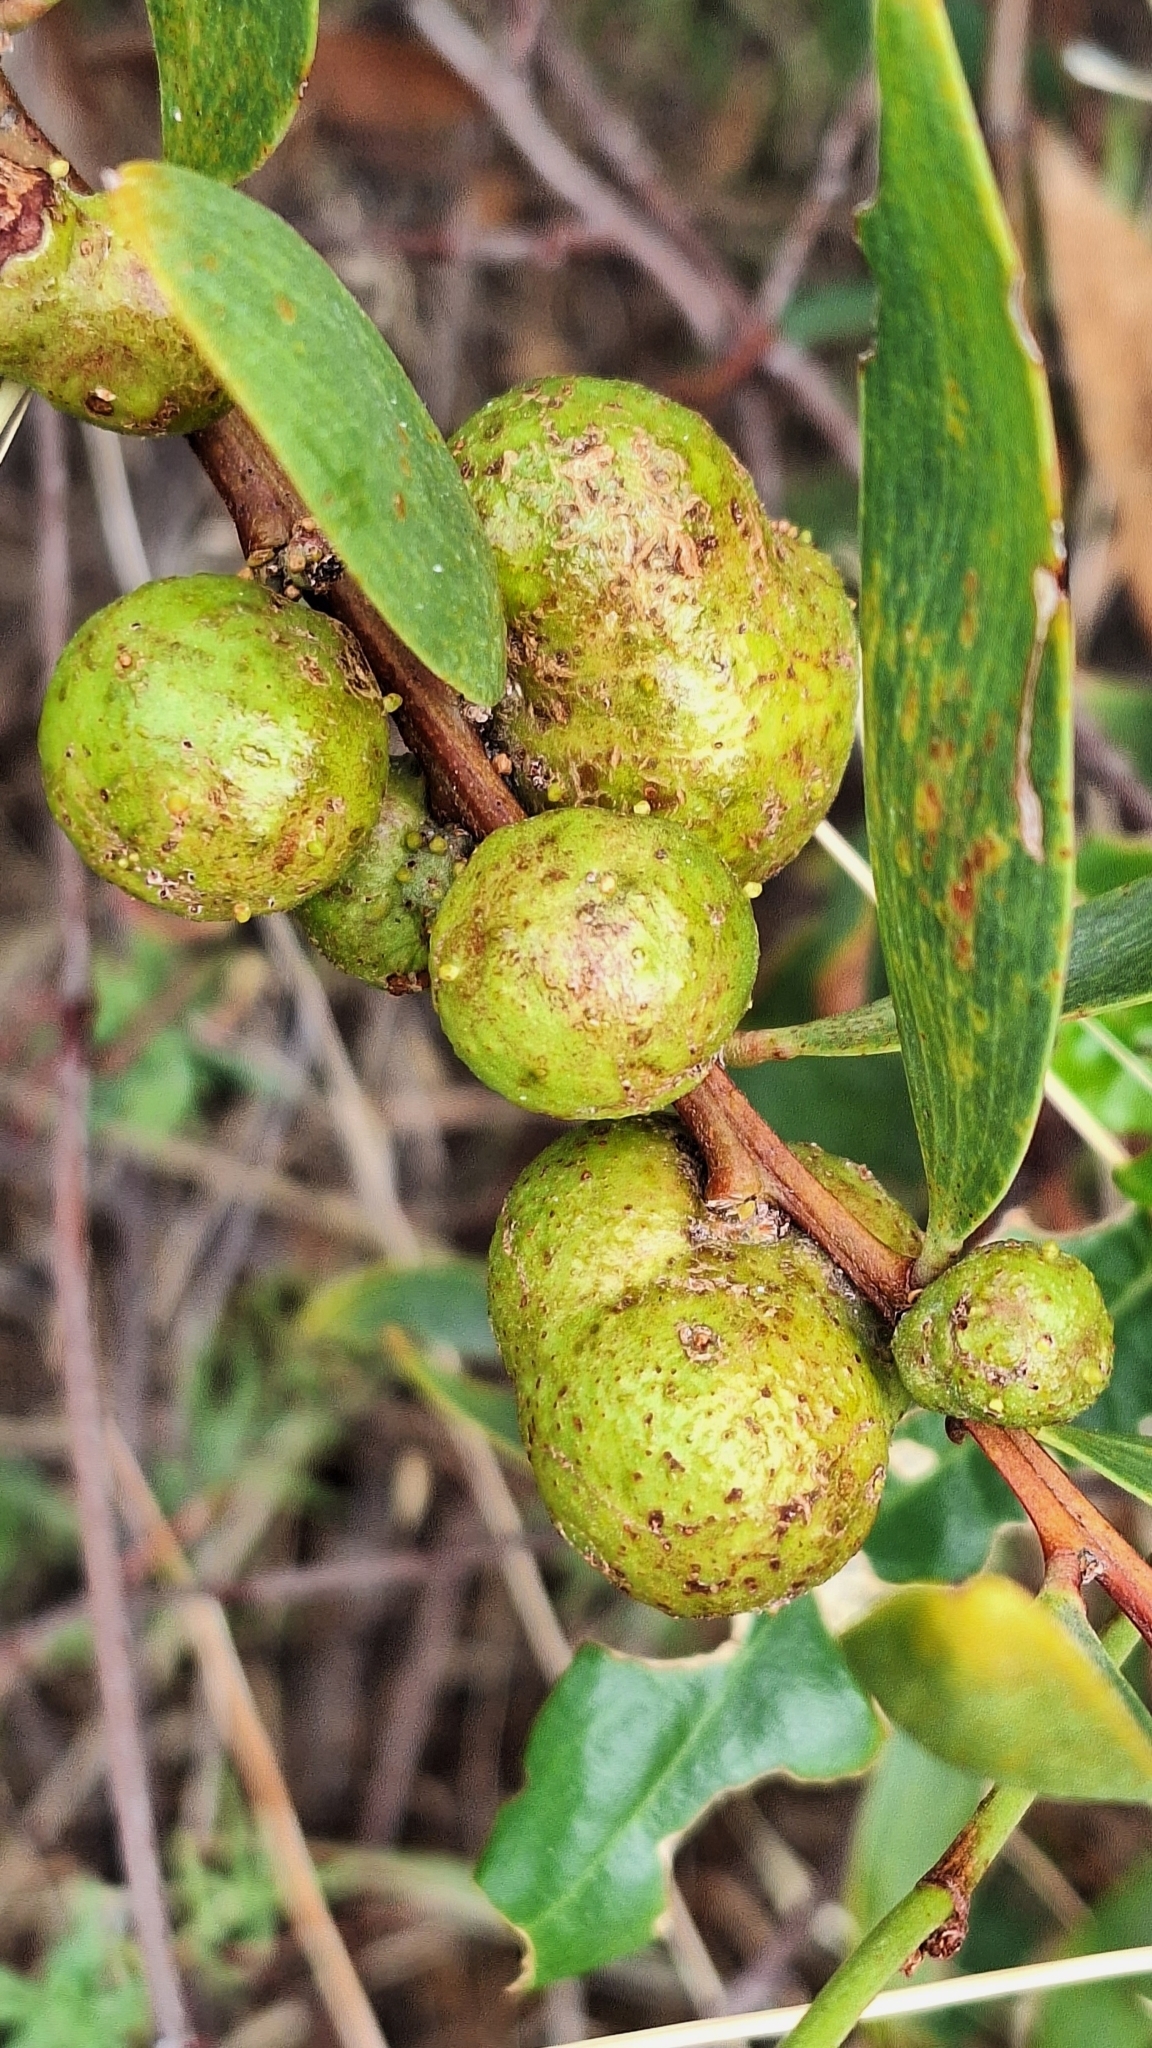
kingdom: Animalia
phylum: Arthropoda
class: Insecta
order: Hymenoptera
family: Pteromalidae
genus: Trichilogaster
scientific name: Trichilogaster acaciaelongifoliae
